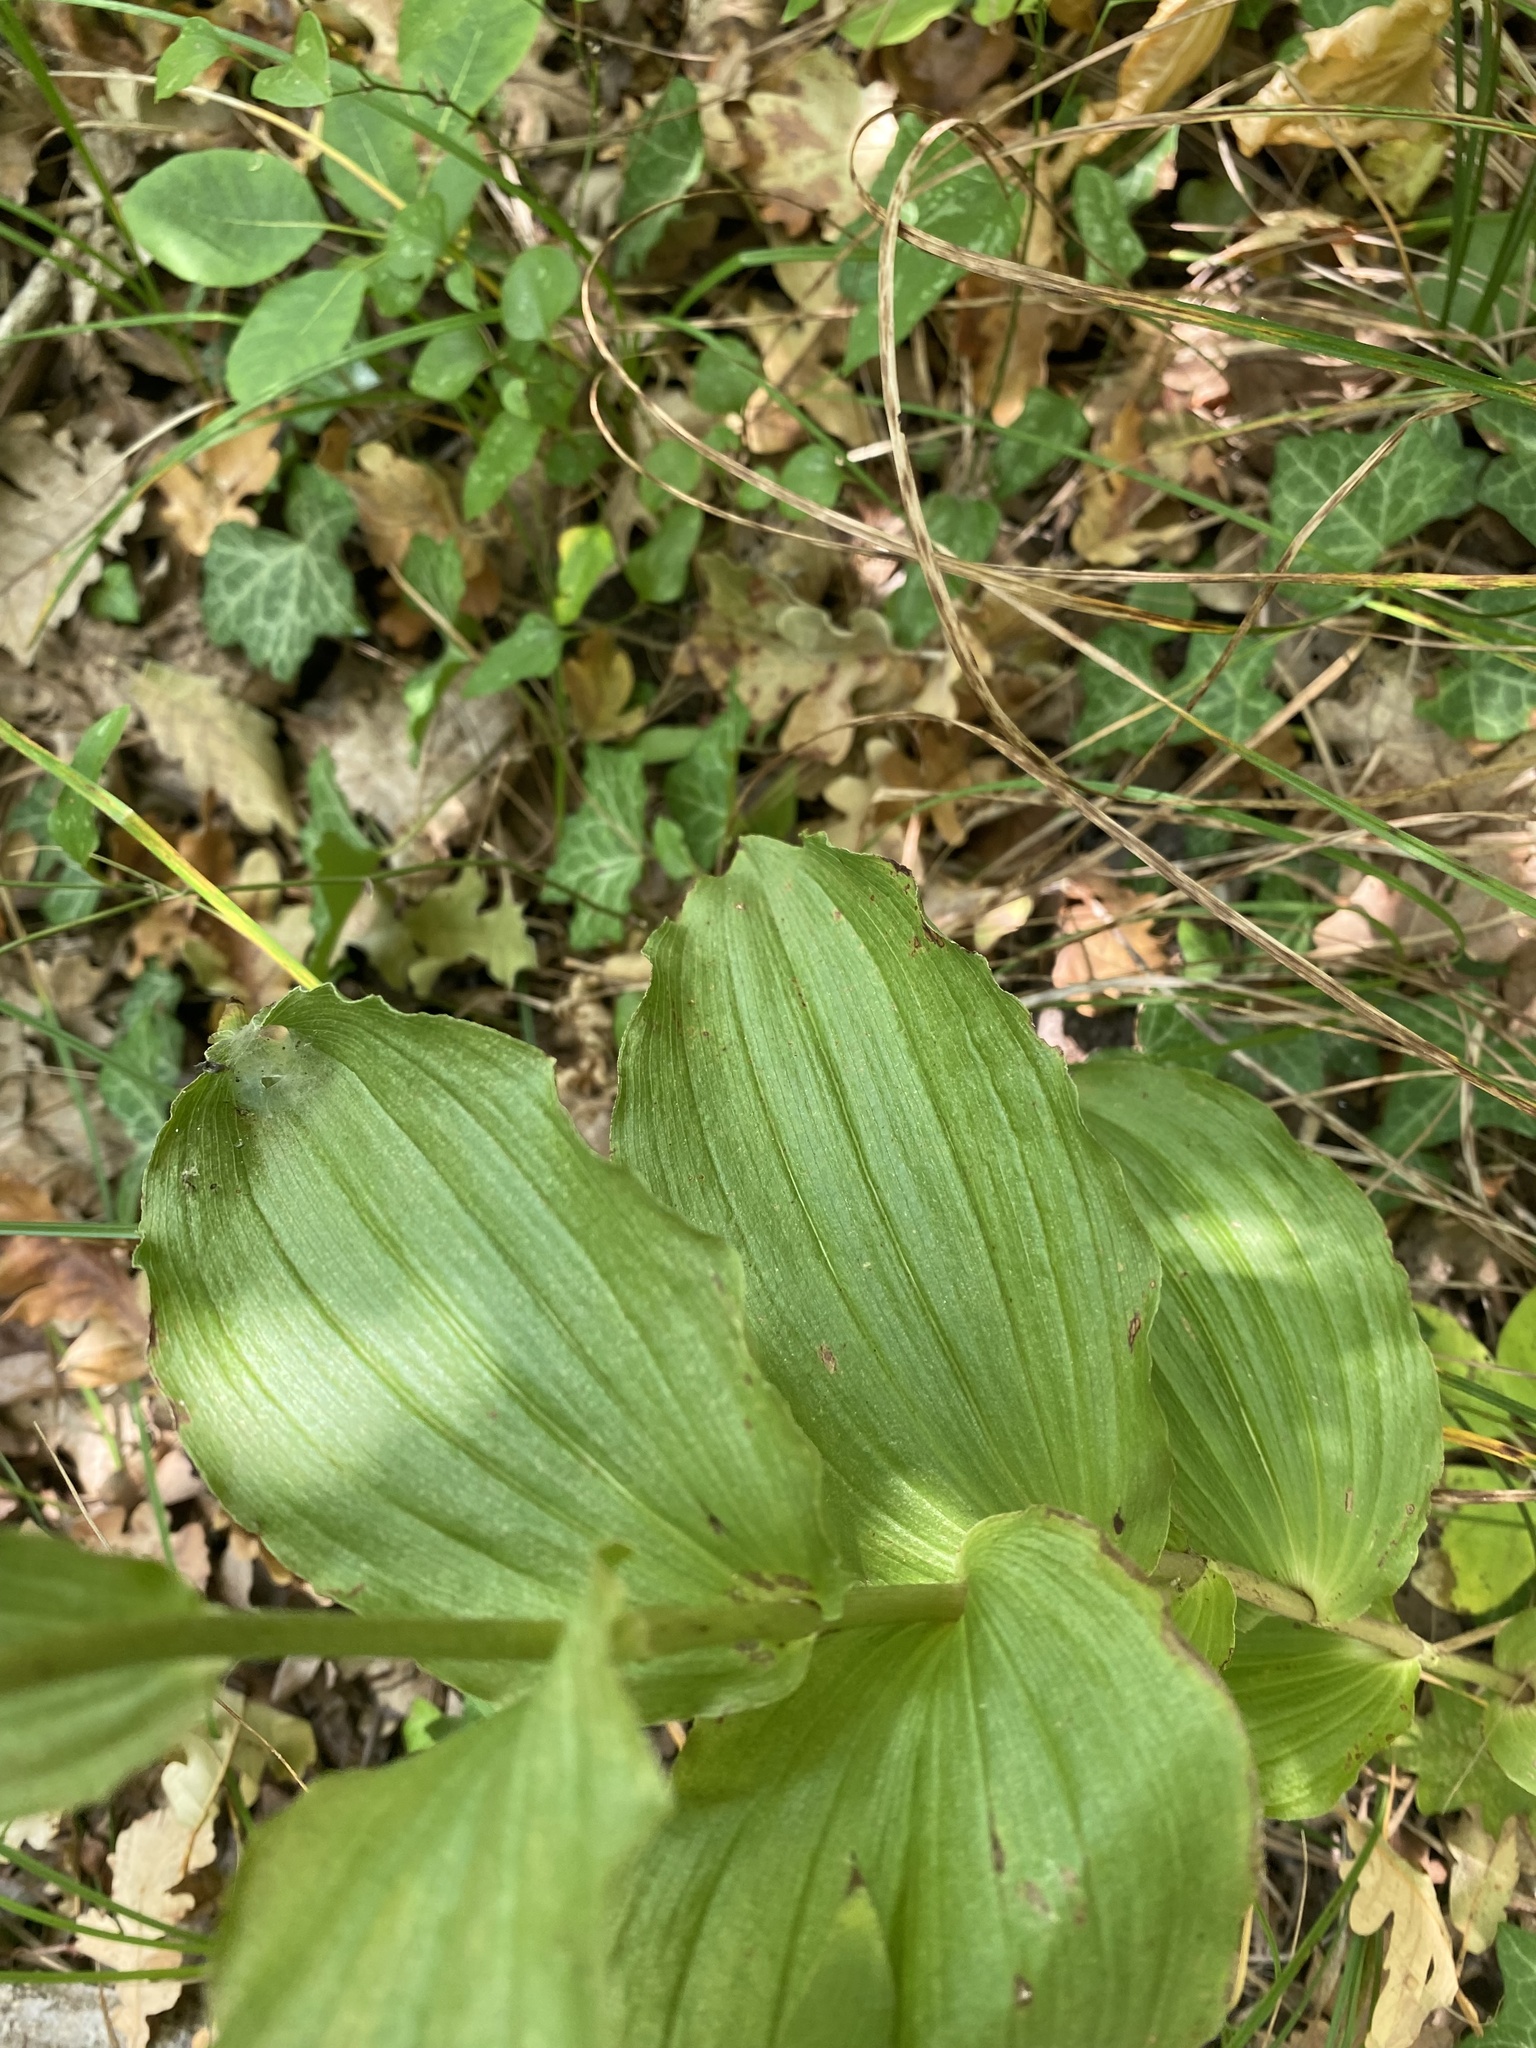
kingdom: Plantae
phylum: Tracheophyta
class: Liliopsida
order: Asparagales
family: Orchidaceae
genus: Epipactis
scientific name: Epipactis helleborine
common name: Broad-leaved helleborine
